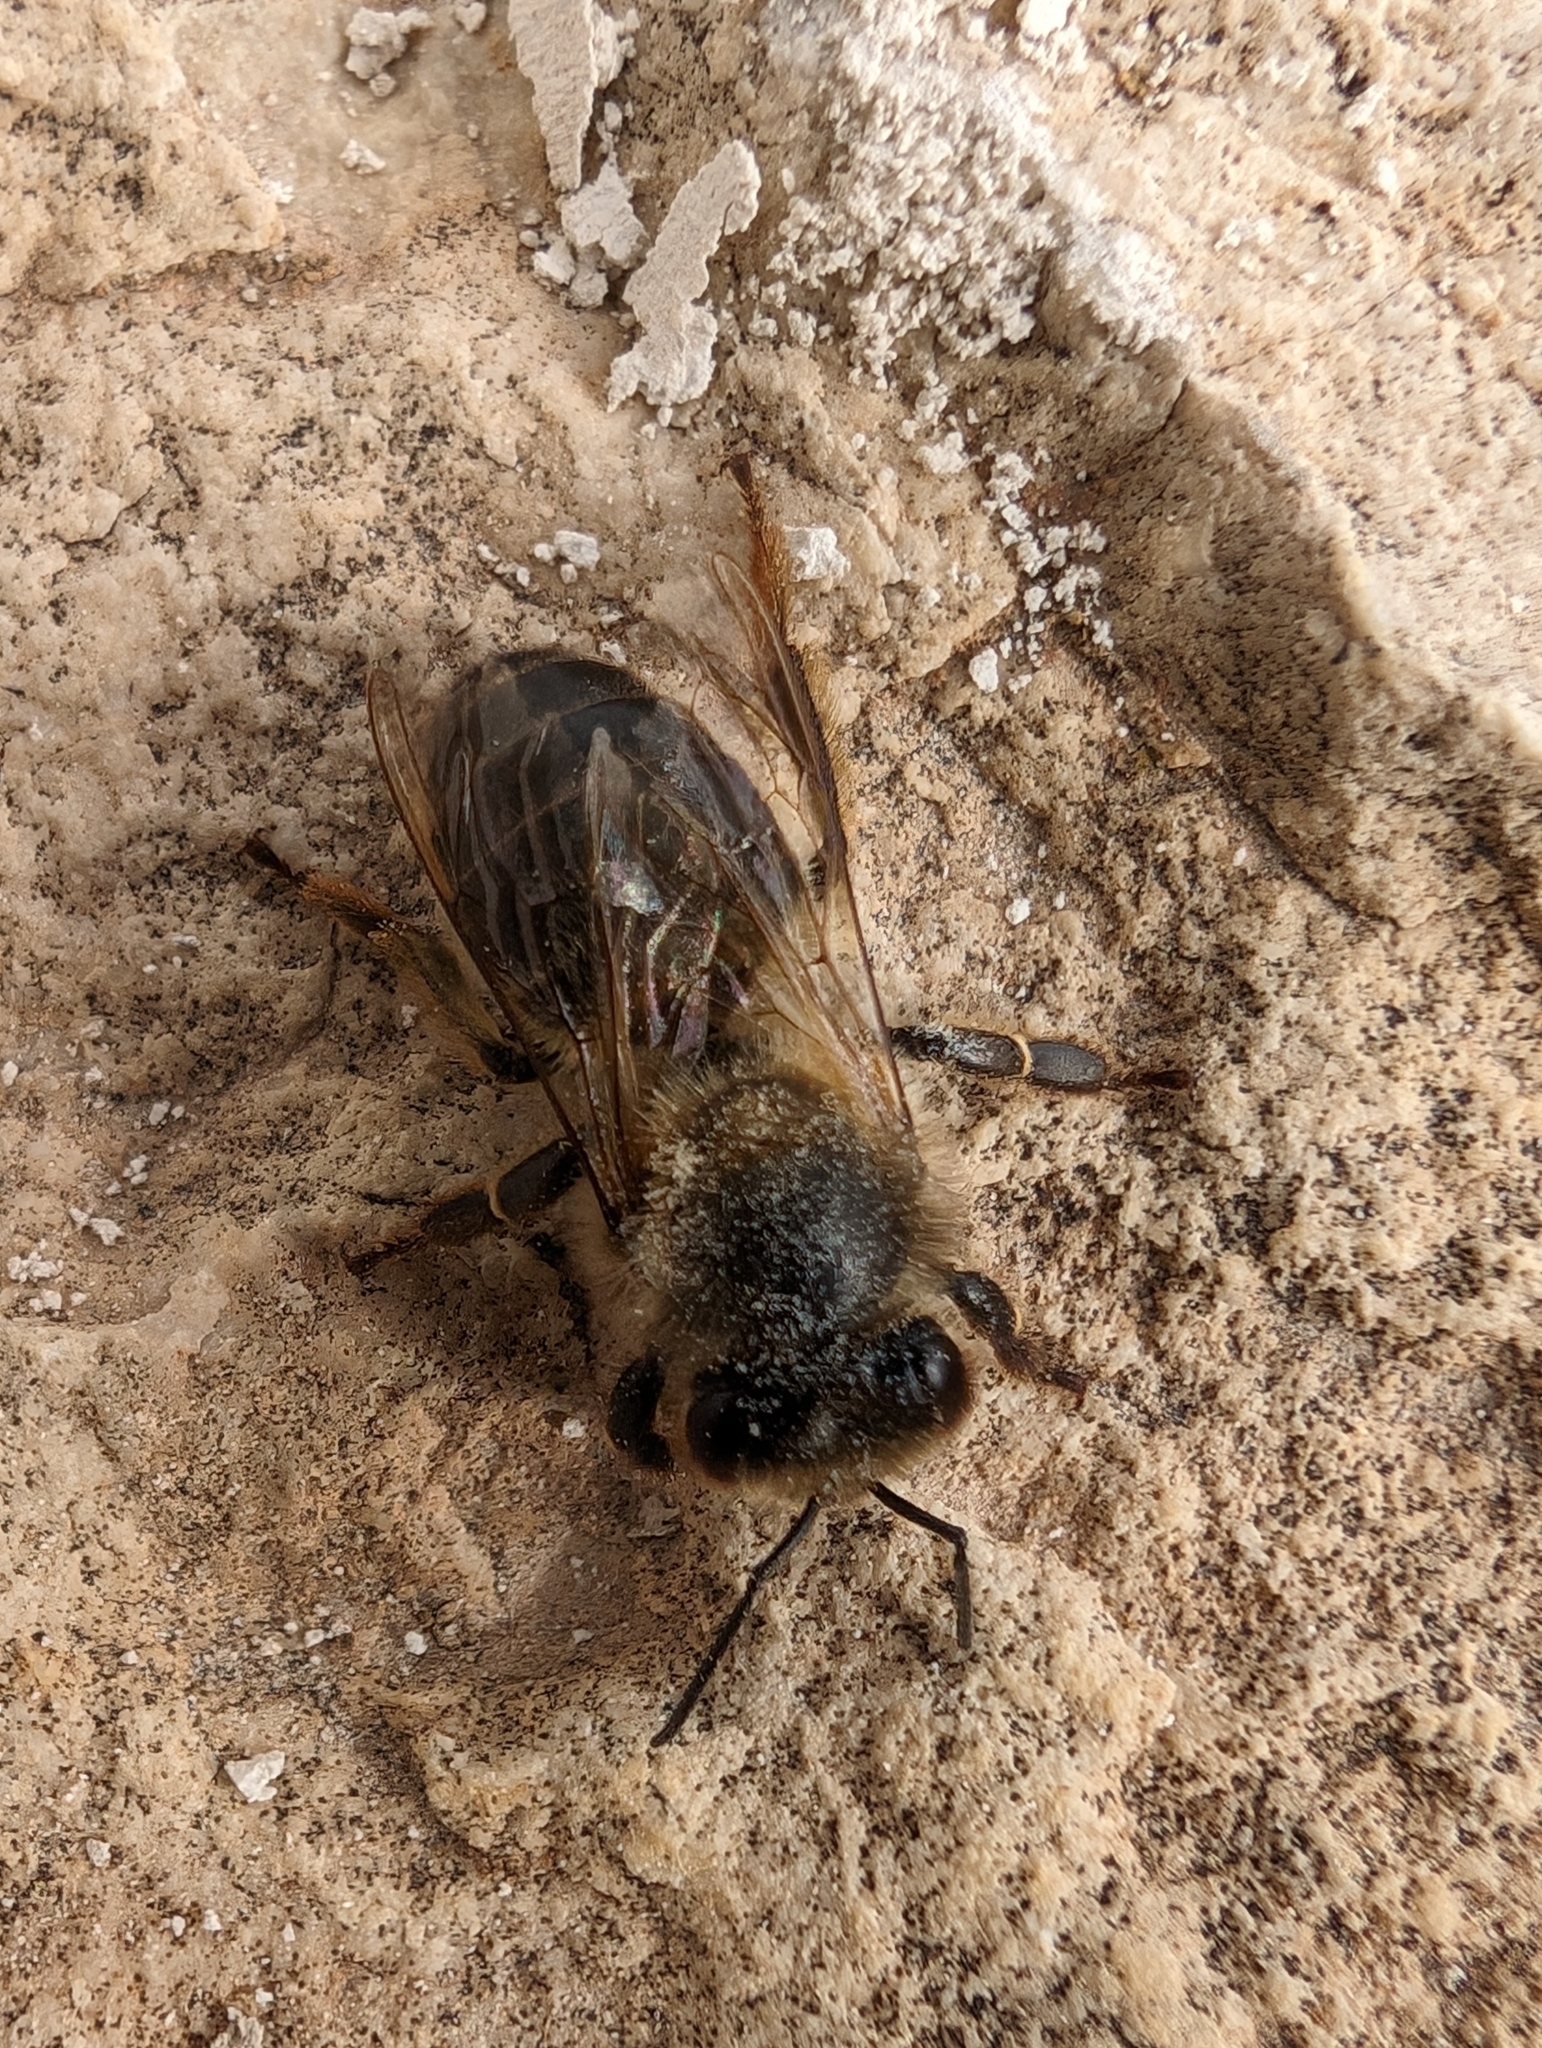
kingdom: Animalia
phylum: Arthropoda
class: Insecta
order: Hymenoptera
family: Apidae
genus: Apis
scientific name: Apis mellifera
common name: Honey bee
